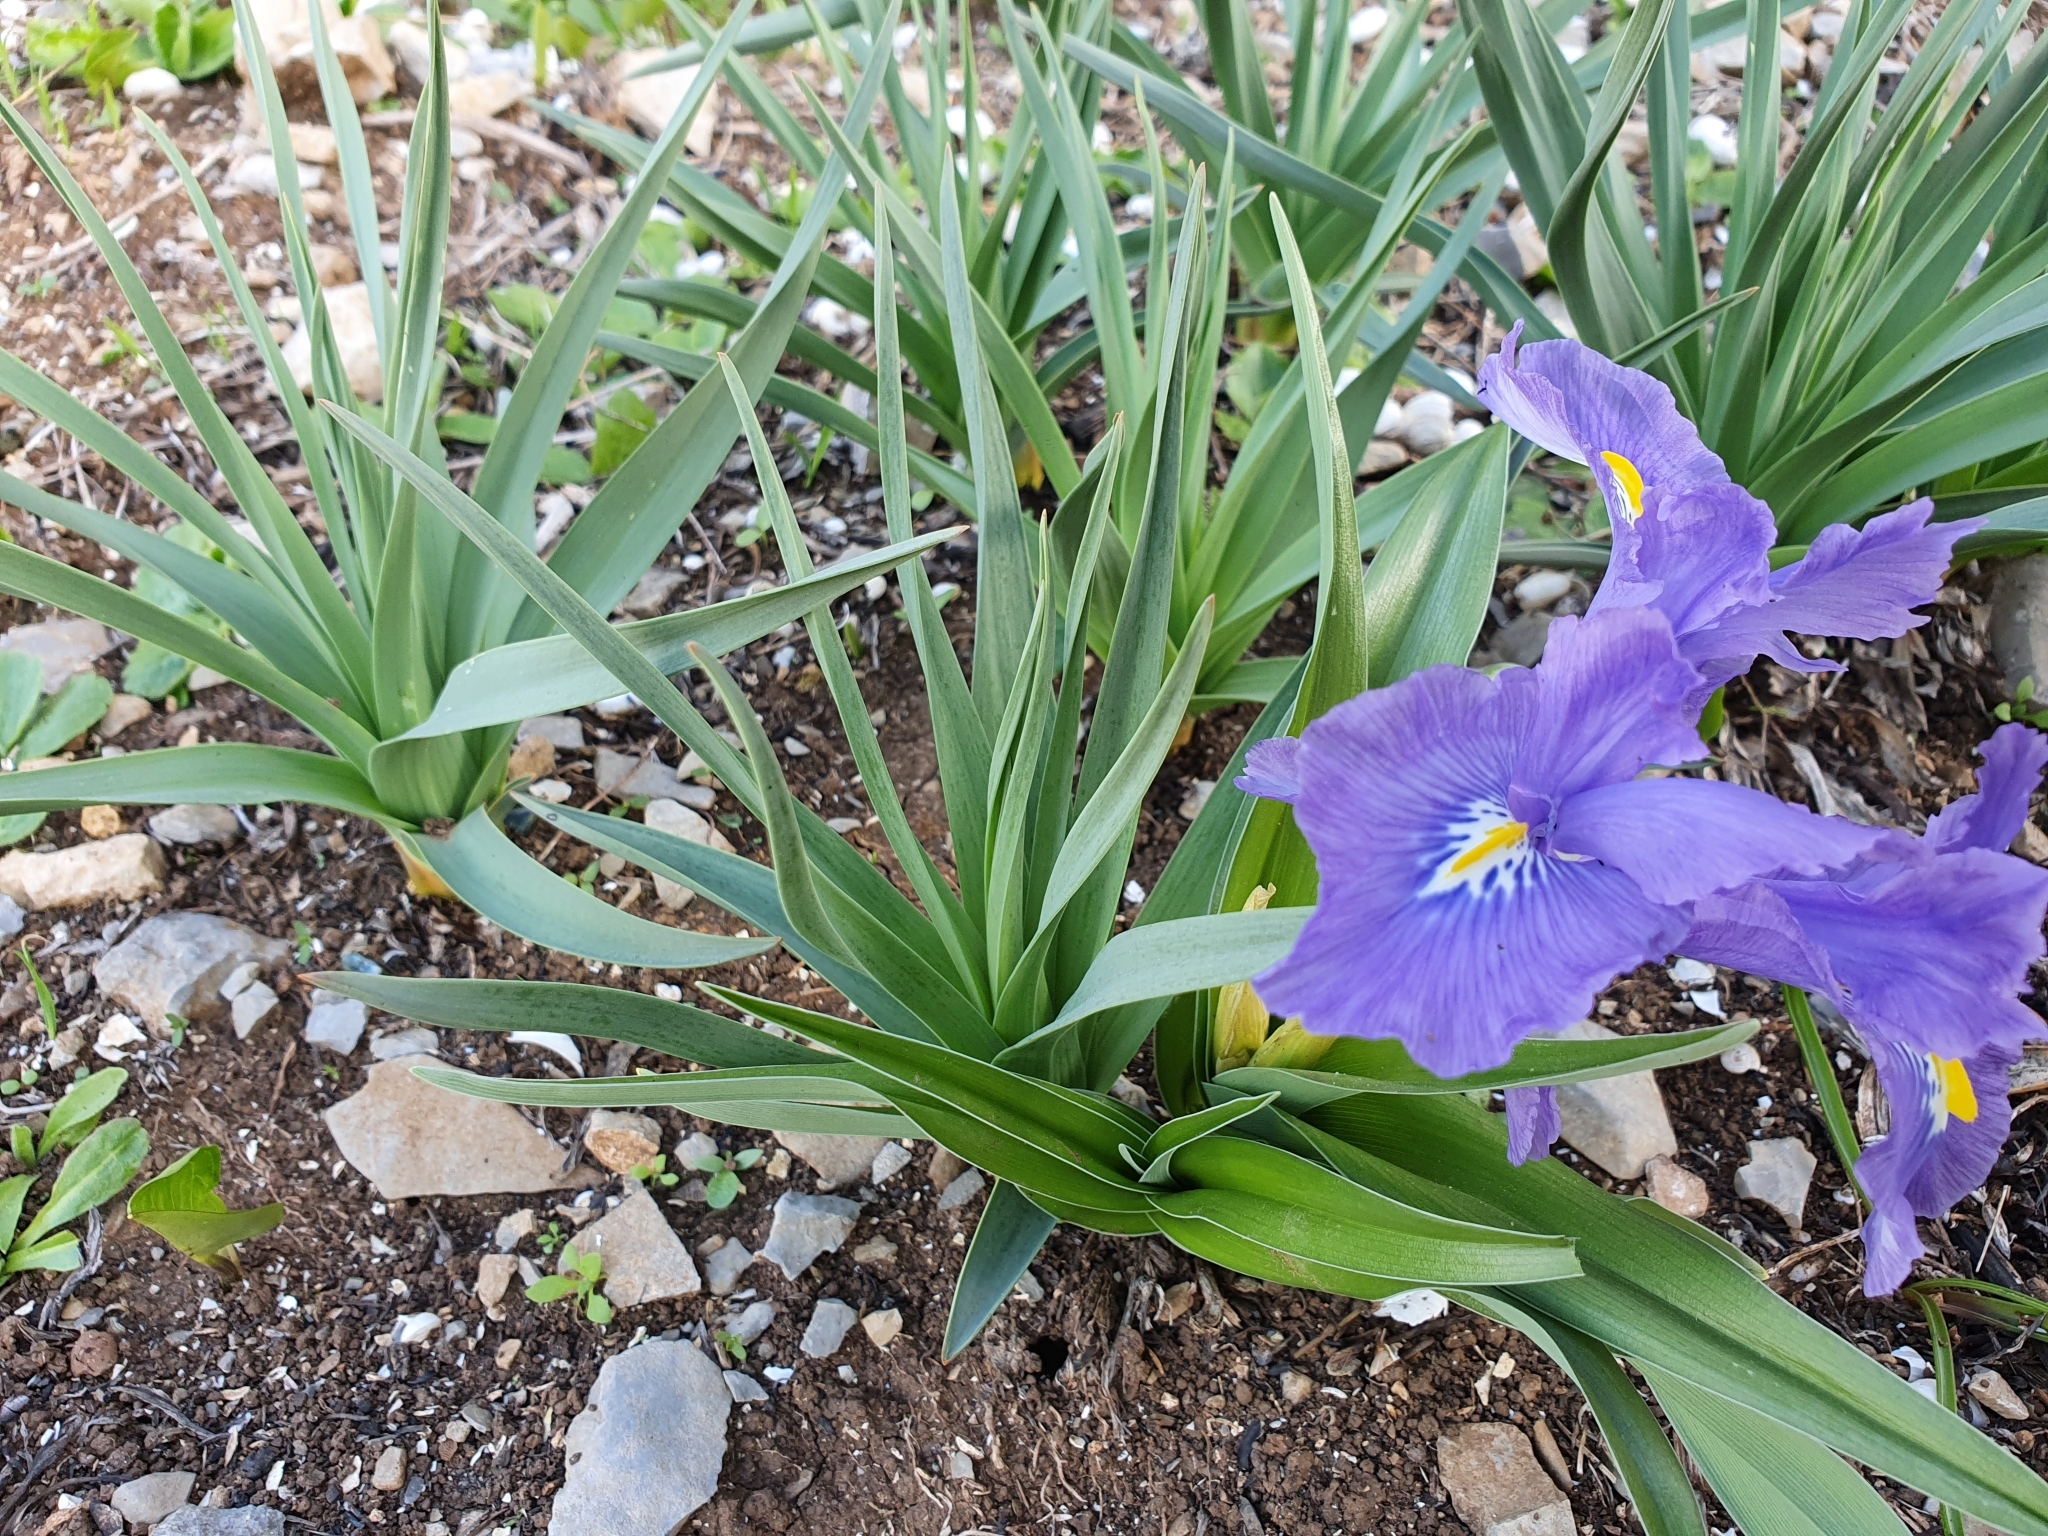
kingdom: Plantae
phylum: Tracheophyta
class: Liliopsida
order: Asparagales
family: Iridaceae
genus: Iris
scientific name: Iris planifolia
